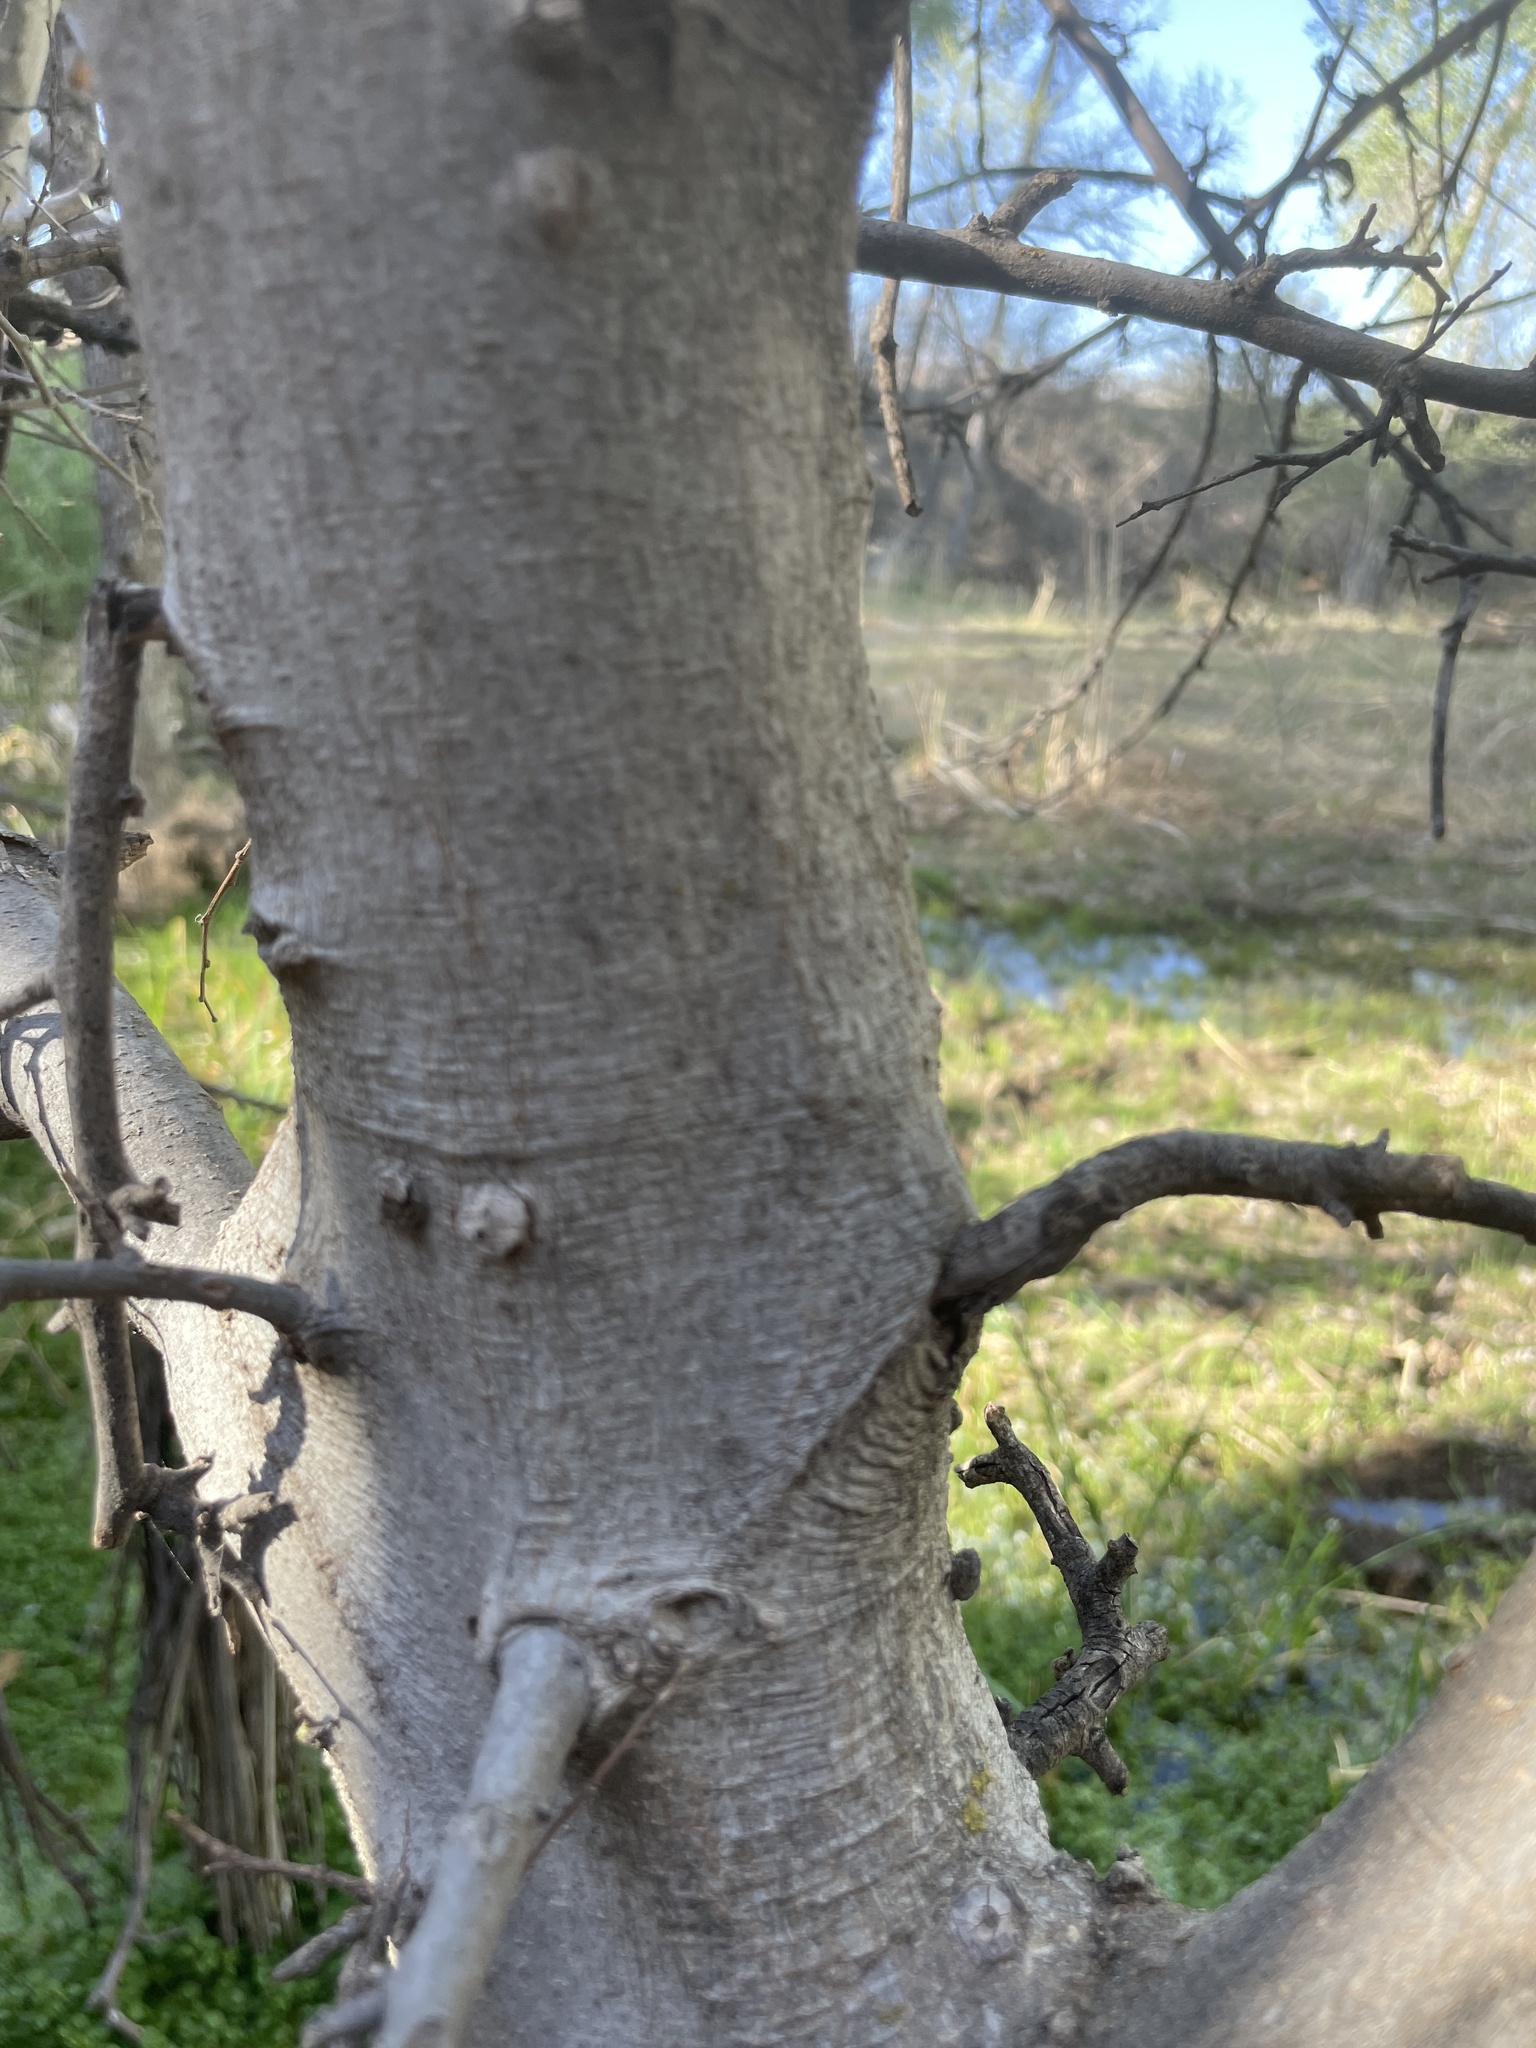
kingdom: Plantae
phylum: Tracheophyta
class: Magnoliopsida
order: Rosales
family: Cannabaceae
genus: Celtis
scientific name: Celtis reticulata
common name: Netleaf hackberry
